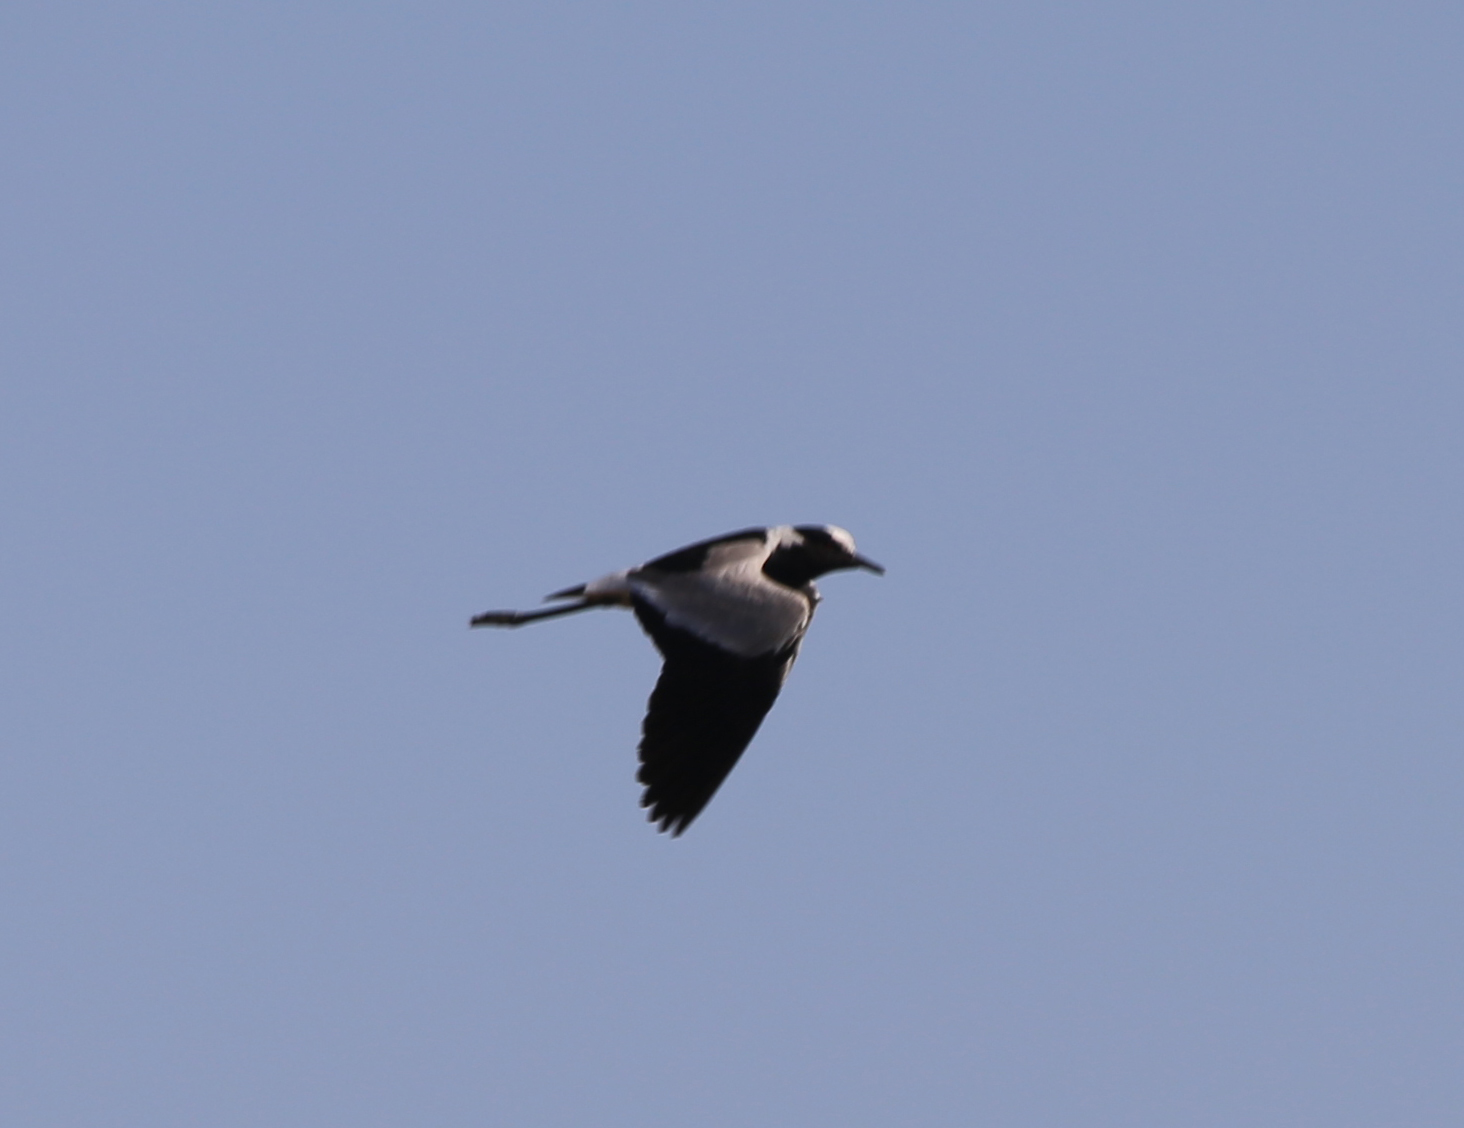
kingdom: Animalia
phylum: Chordata
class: Aves
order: Charadriiformes
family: Charadriidae
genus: Vanellus
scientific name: Vanellus armatus
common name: Blacksmith lapwing
